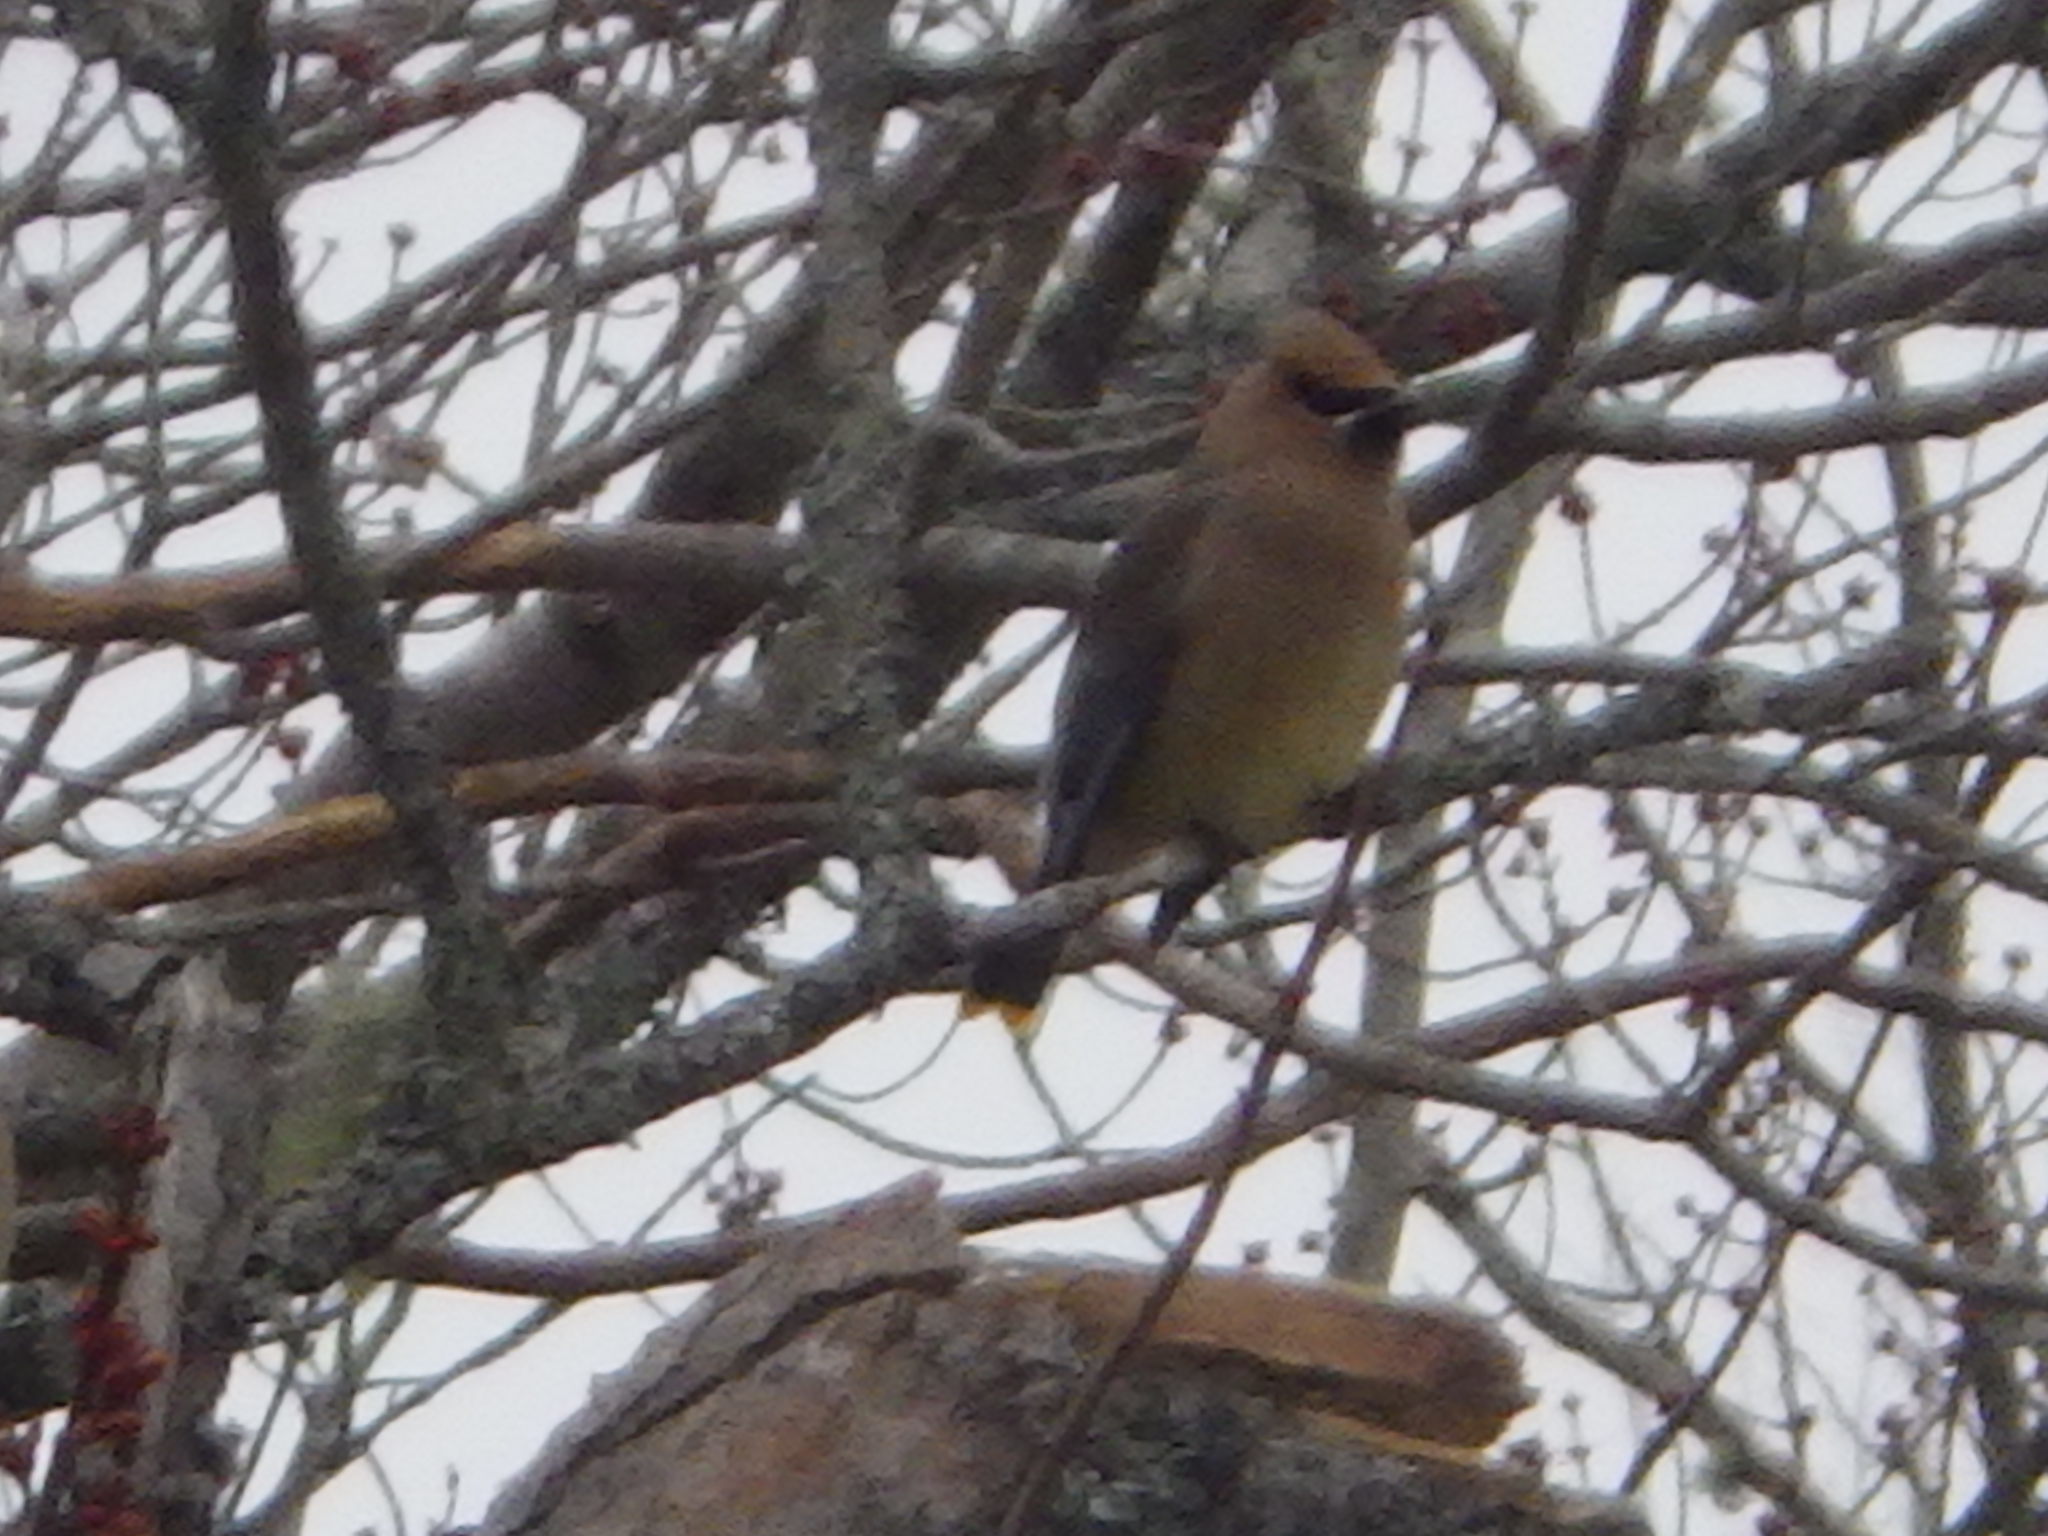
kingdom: Animalia
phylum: Chordata
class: Aves
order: Passeriformes
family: Bombycillidae
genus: Bombycilla
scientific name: Bombycilla cedrorum
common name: Cedar waxwing
